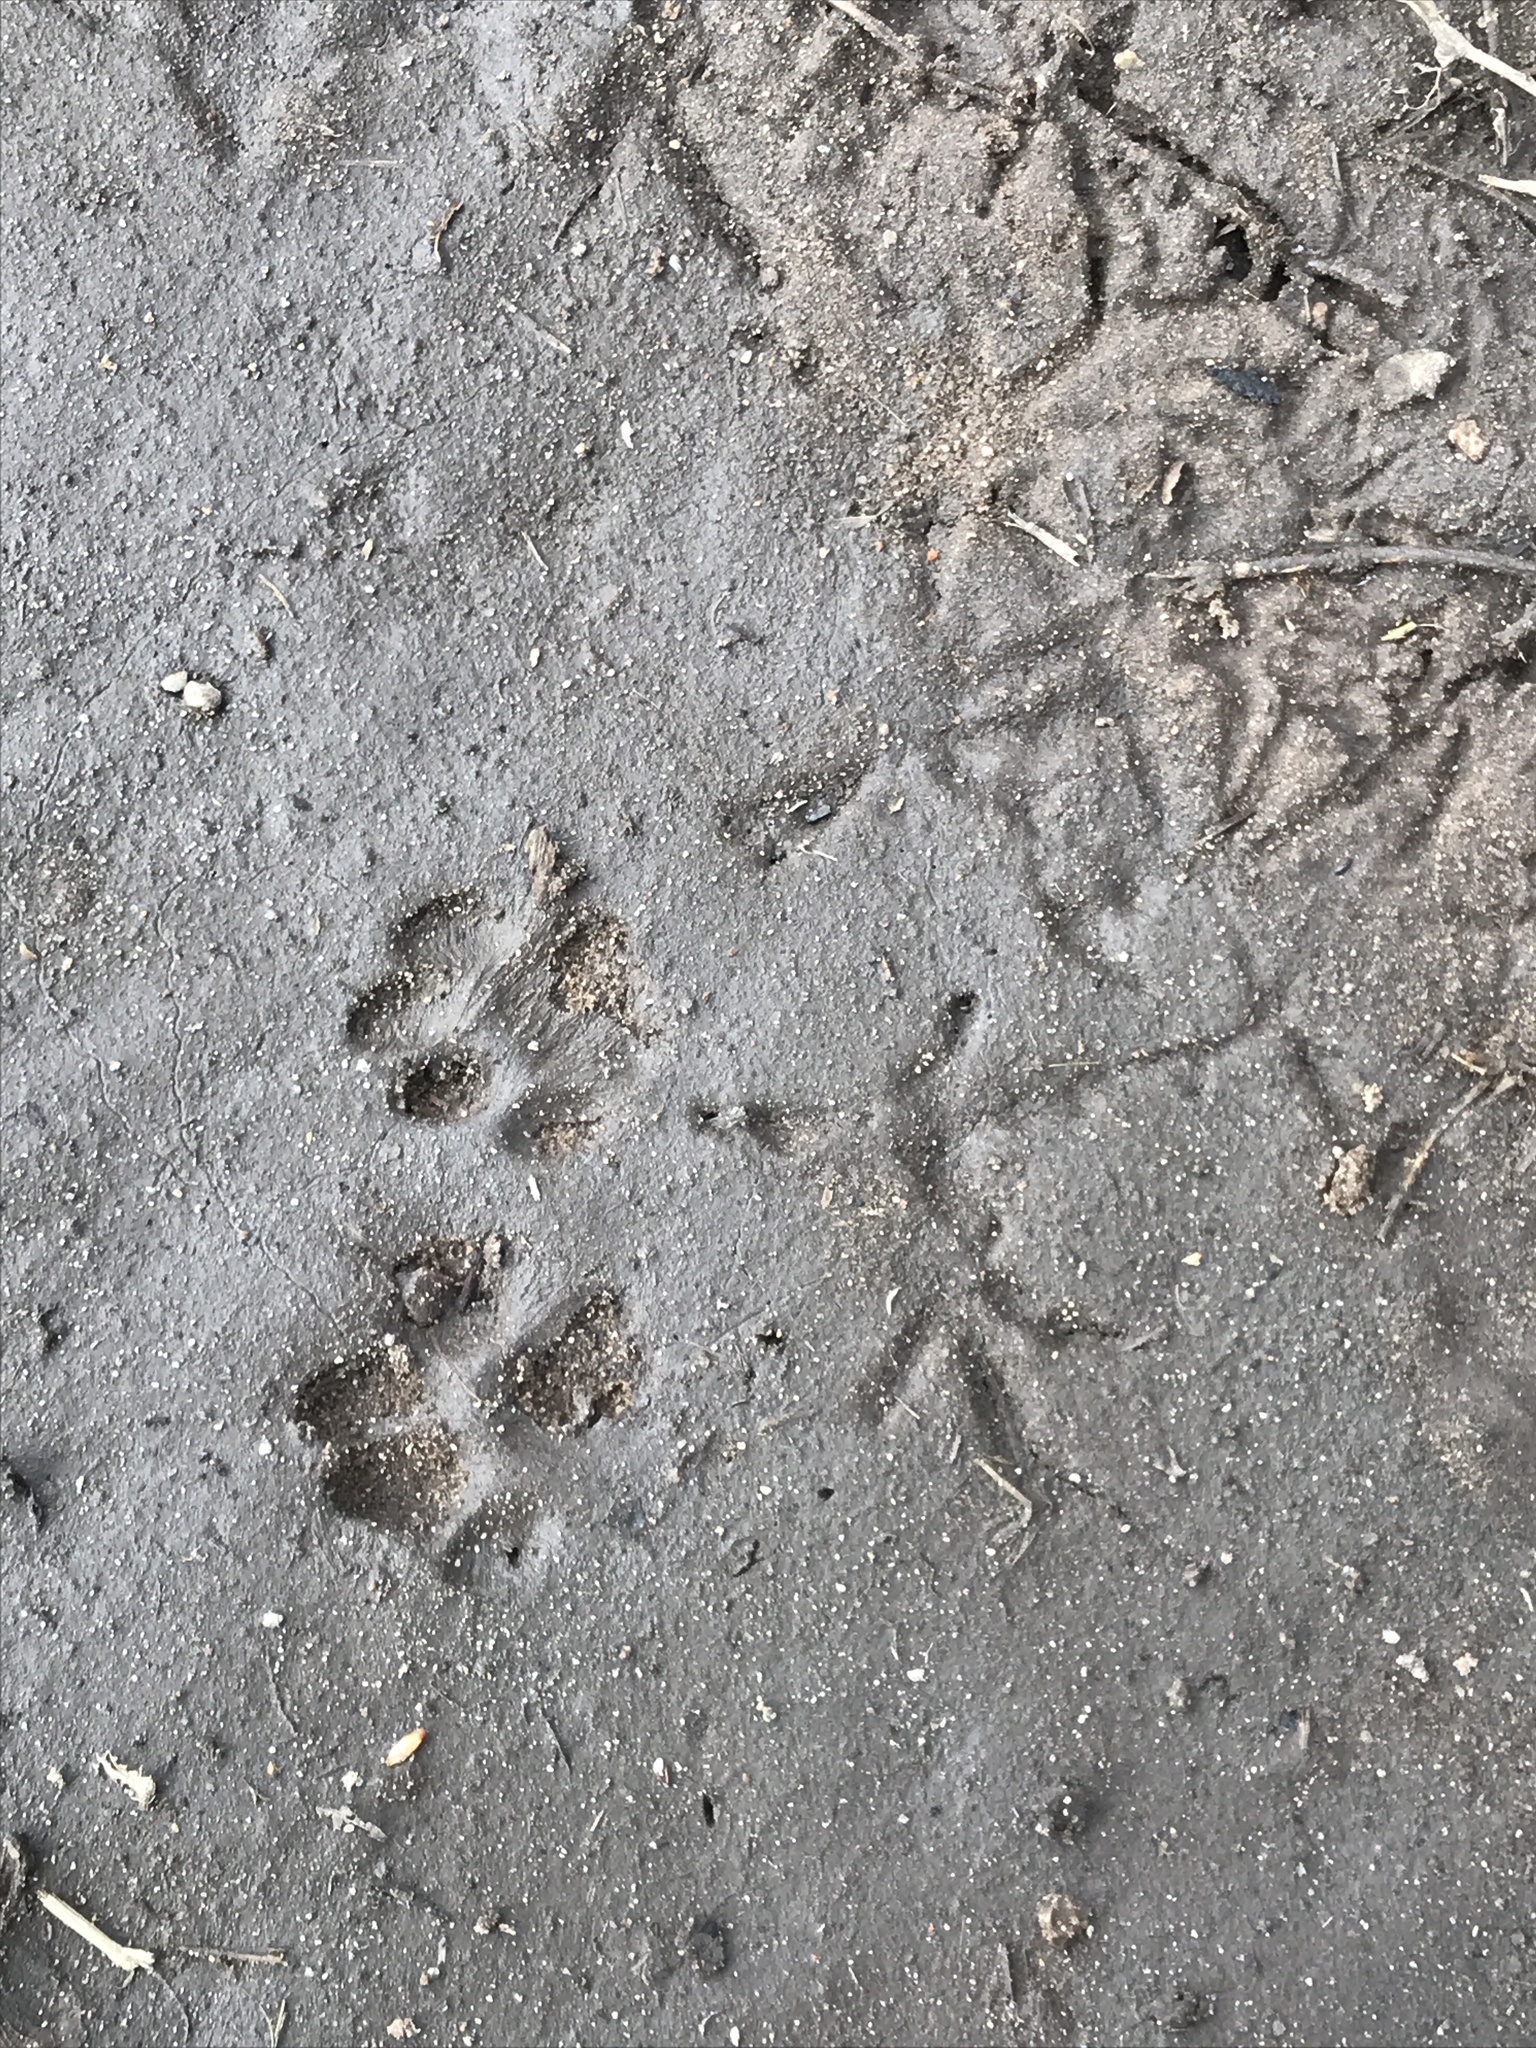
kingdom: Animalia
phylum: Chordata
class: Mammalia
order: Carnivora
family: Felidae
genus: Felis
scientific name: Felis catus
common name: Domestic cat
